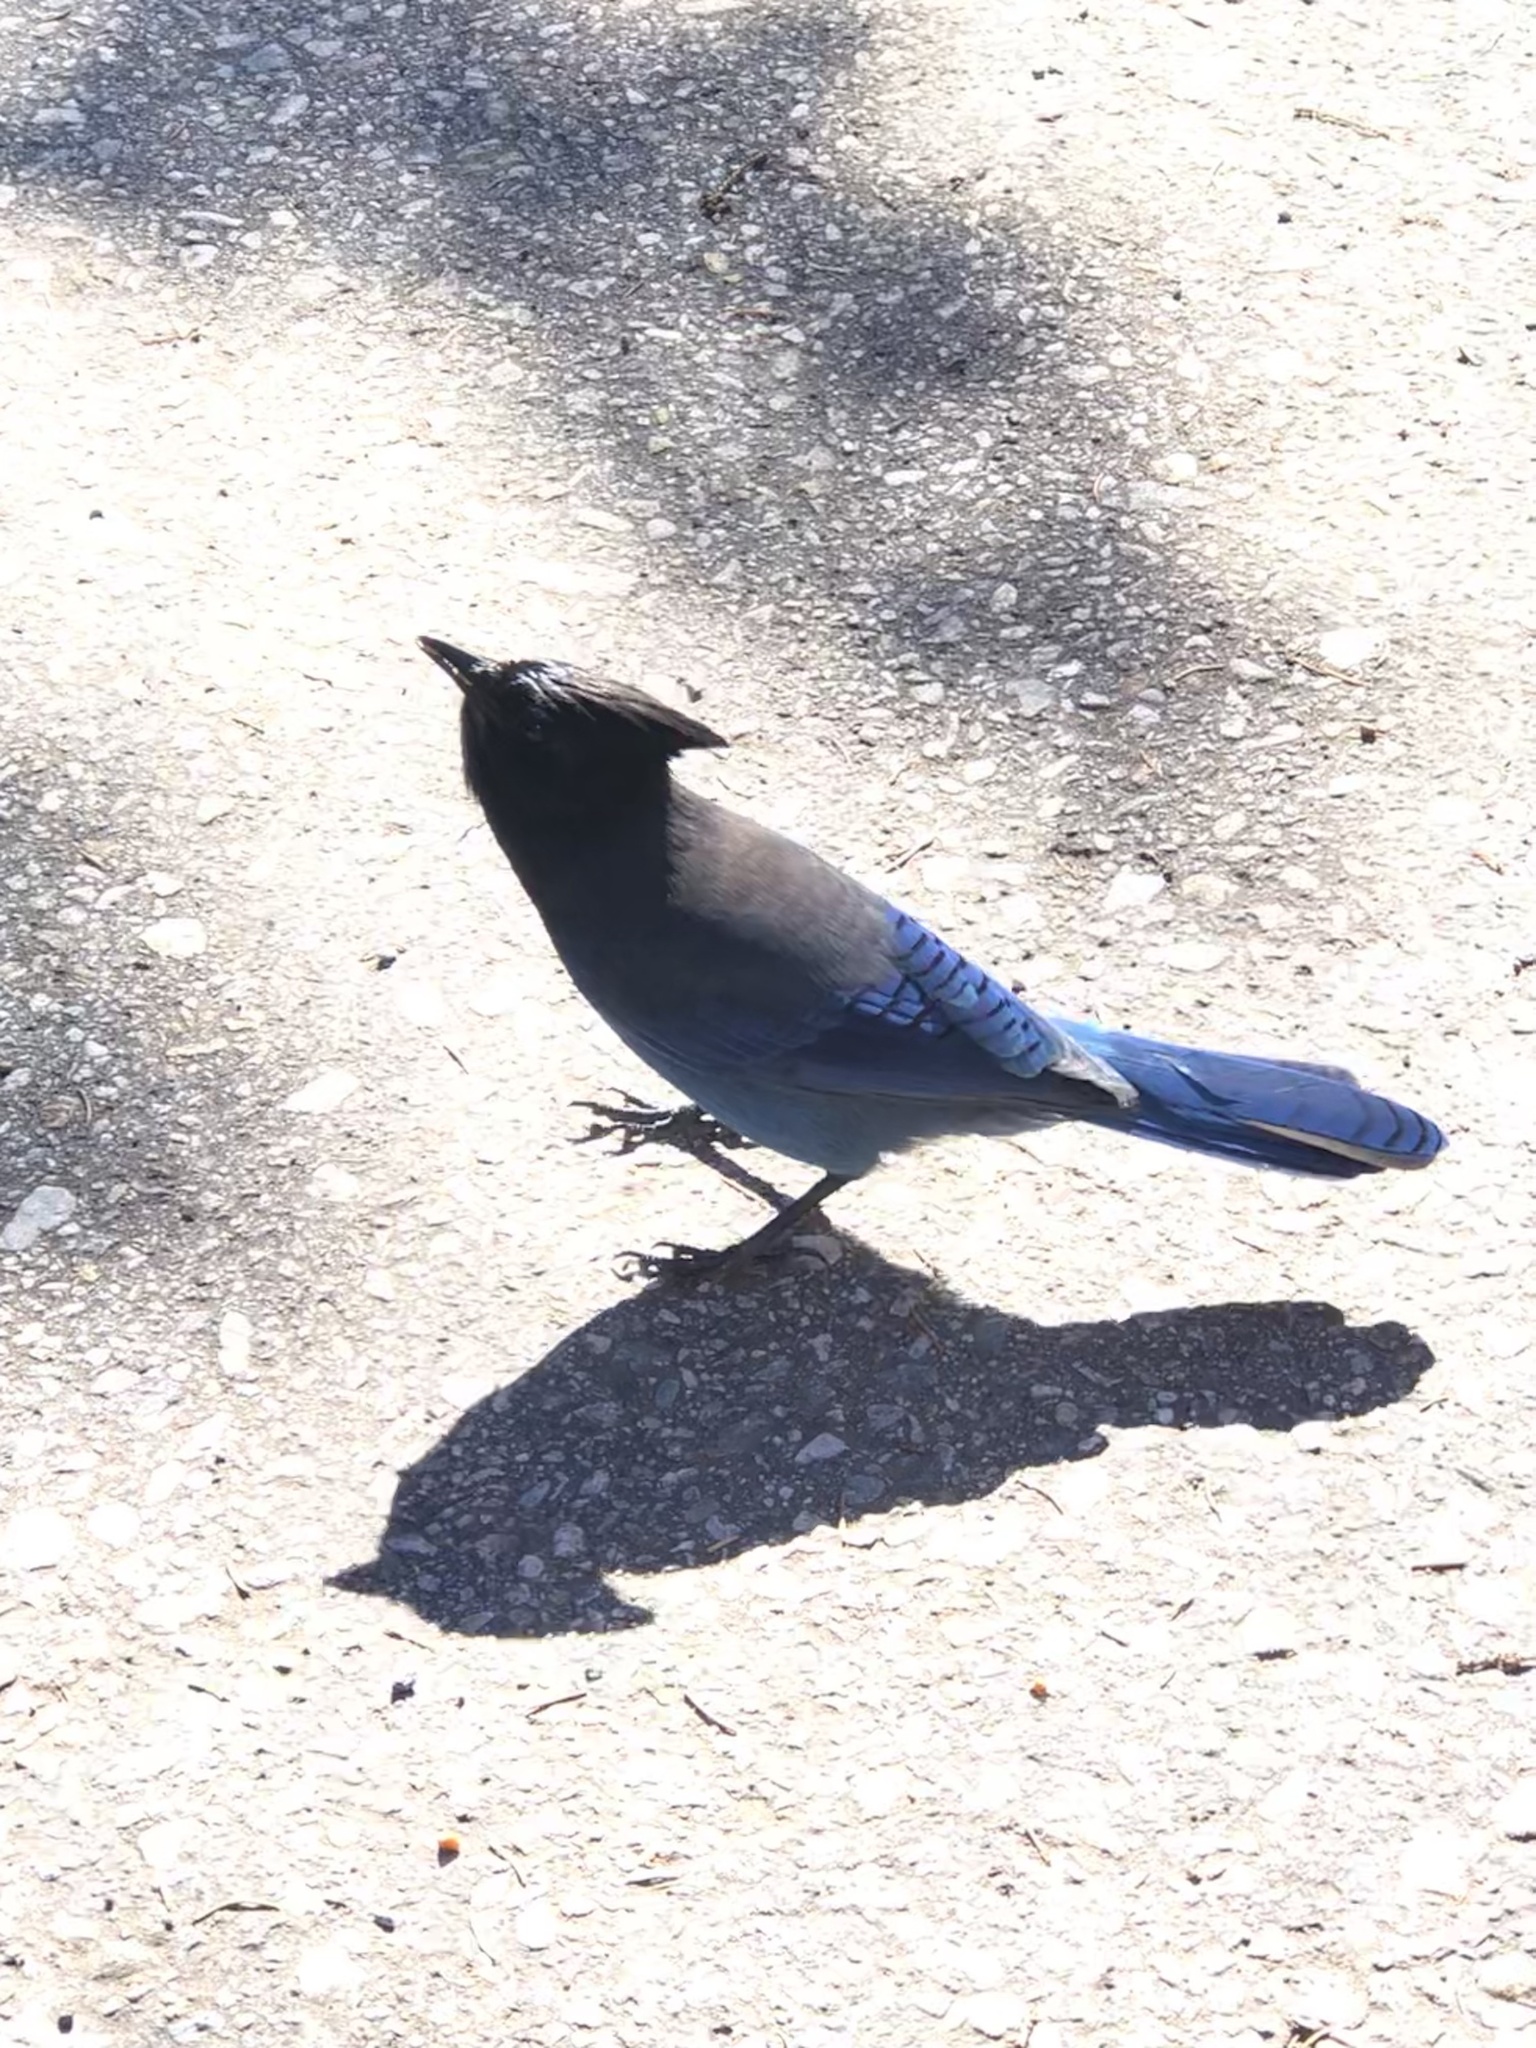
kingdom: Animalia
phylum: Chordata
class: Aves
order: Passeriformes
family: Corvidae
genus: Cyanocitta
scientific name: Cyanocitta stelleri
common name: Steller's jay
